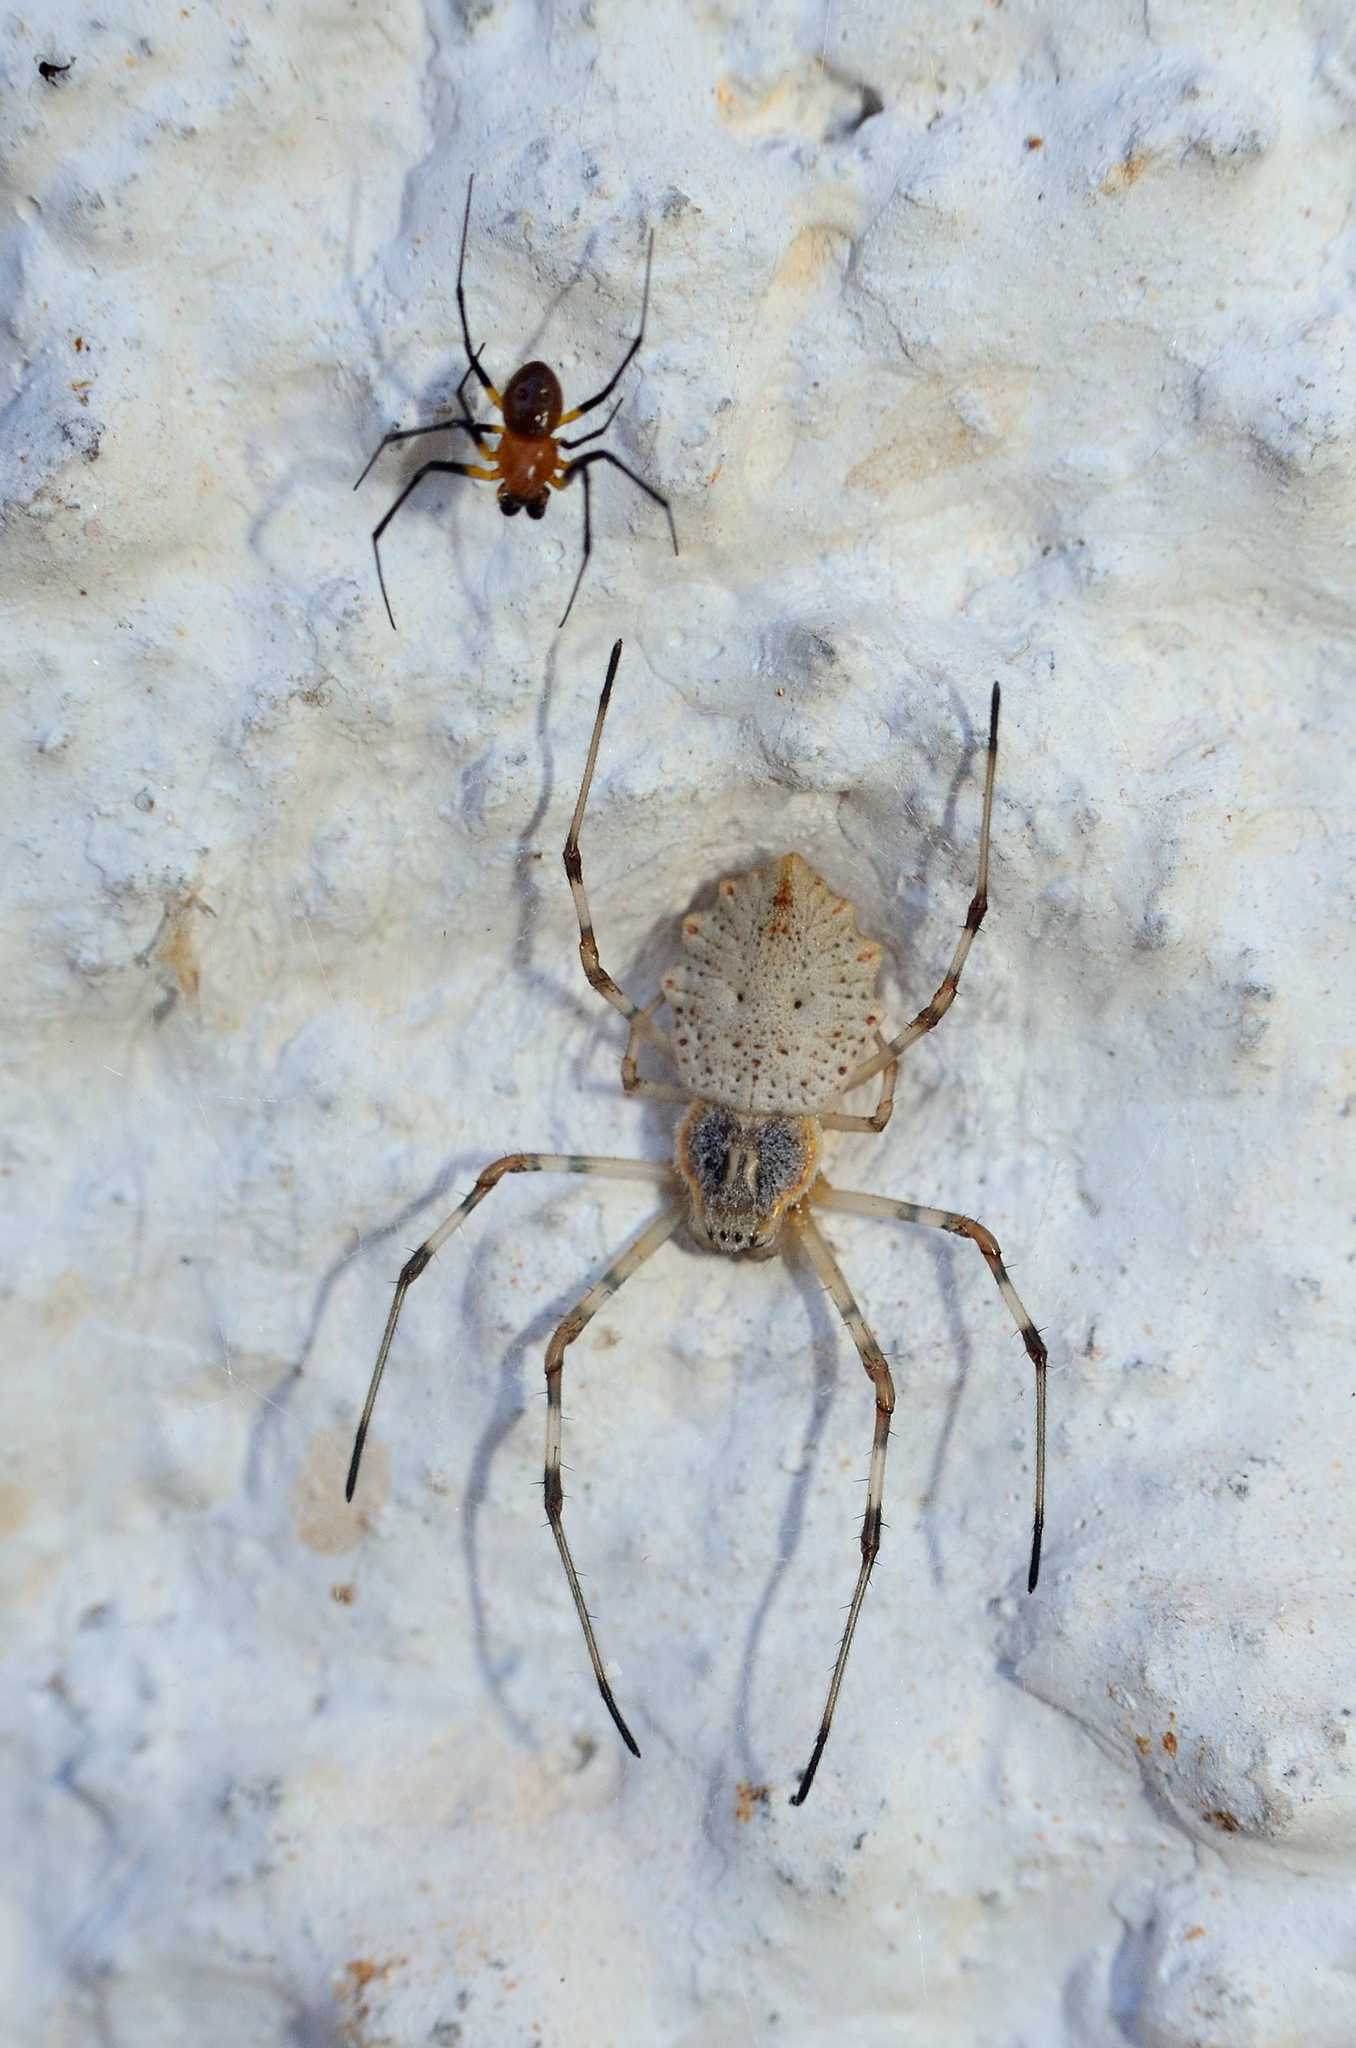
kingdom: Animalia
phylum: Arthropoda
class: Arachnida
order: Araneae
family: Araneidae
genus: Herennia
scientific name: Herennia multipuncta
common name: Spotted coin spider
